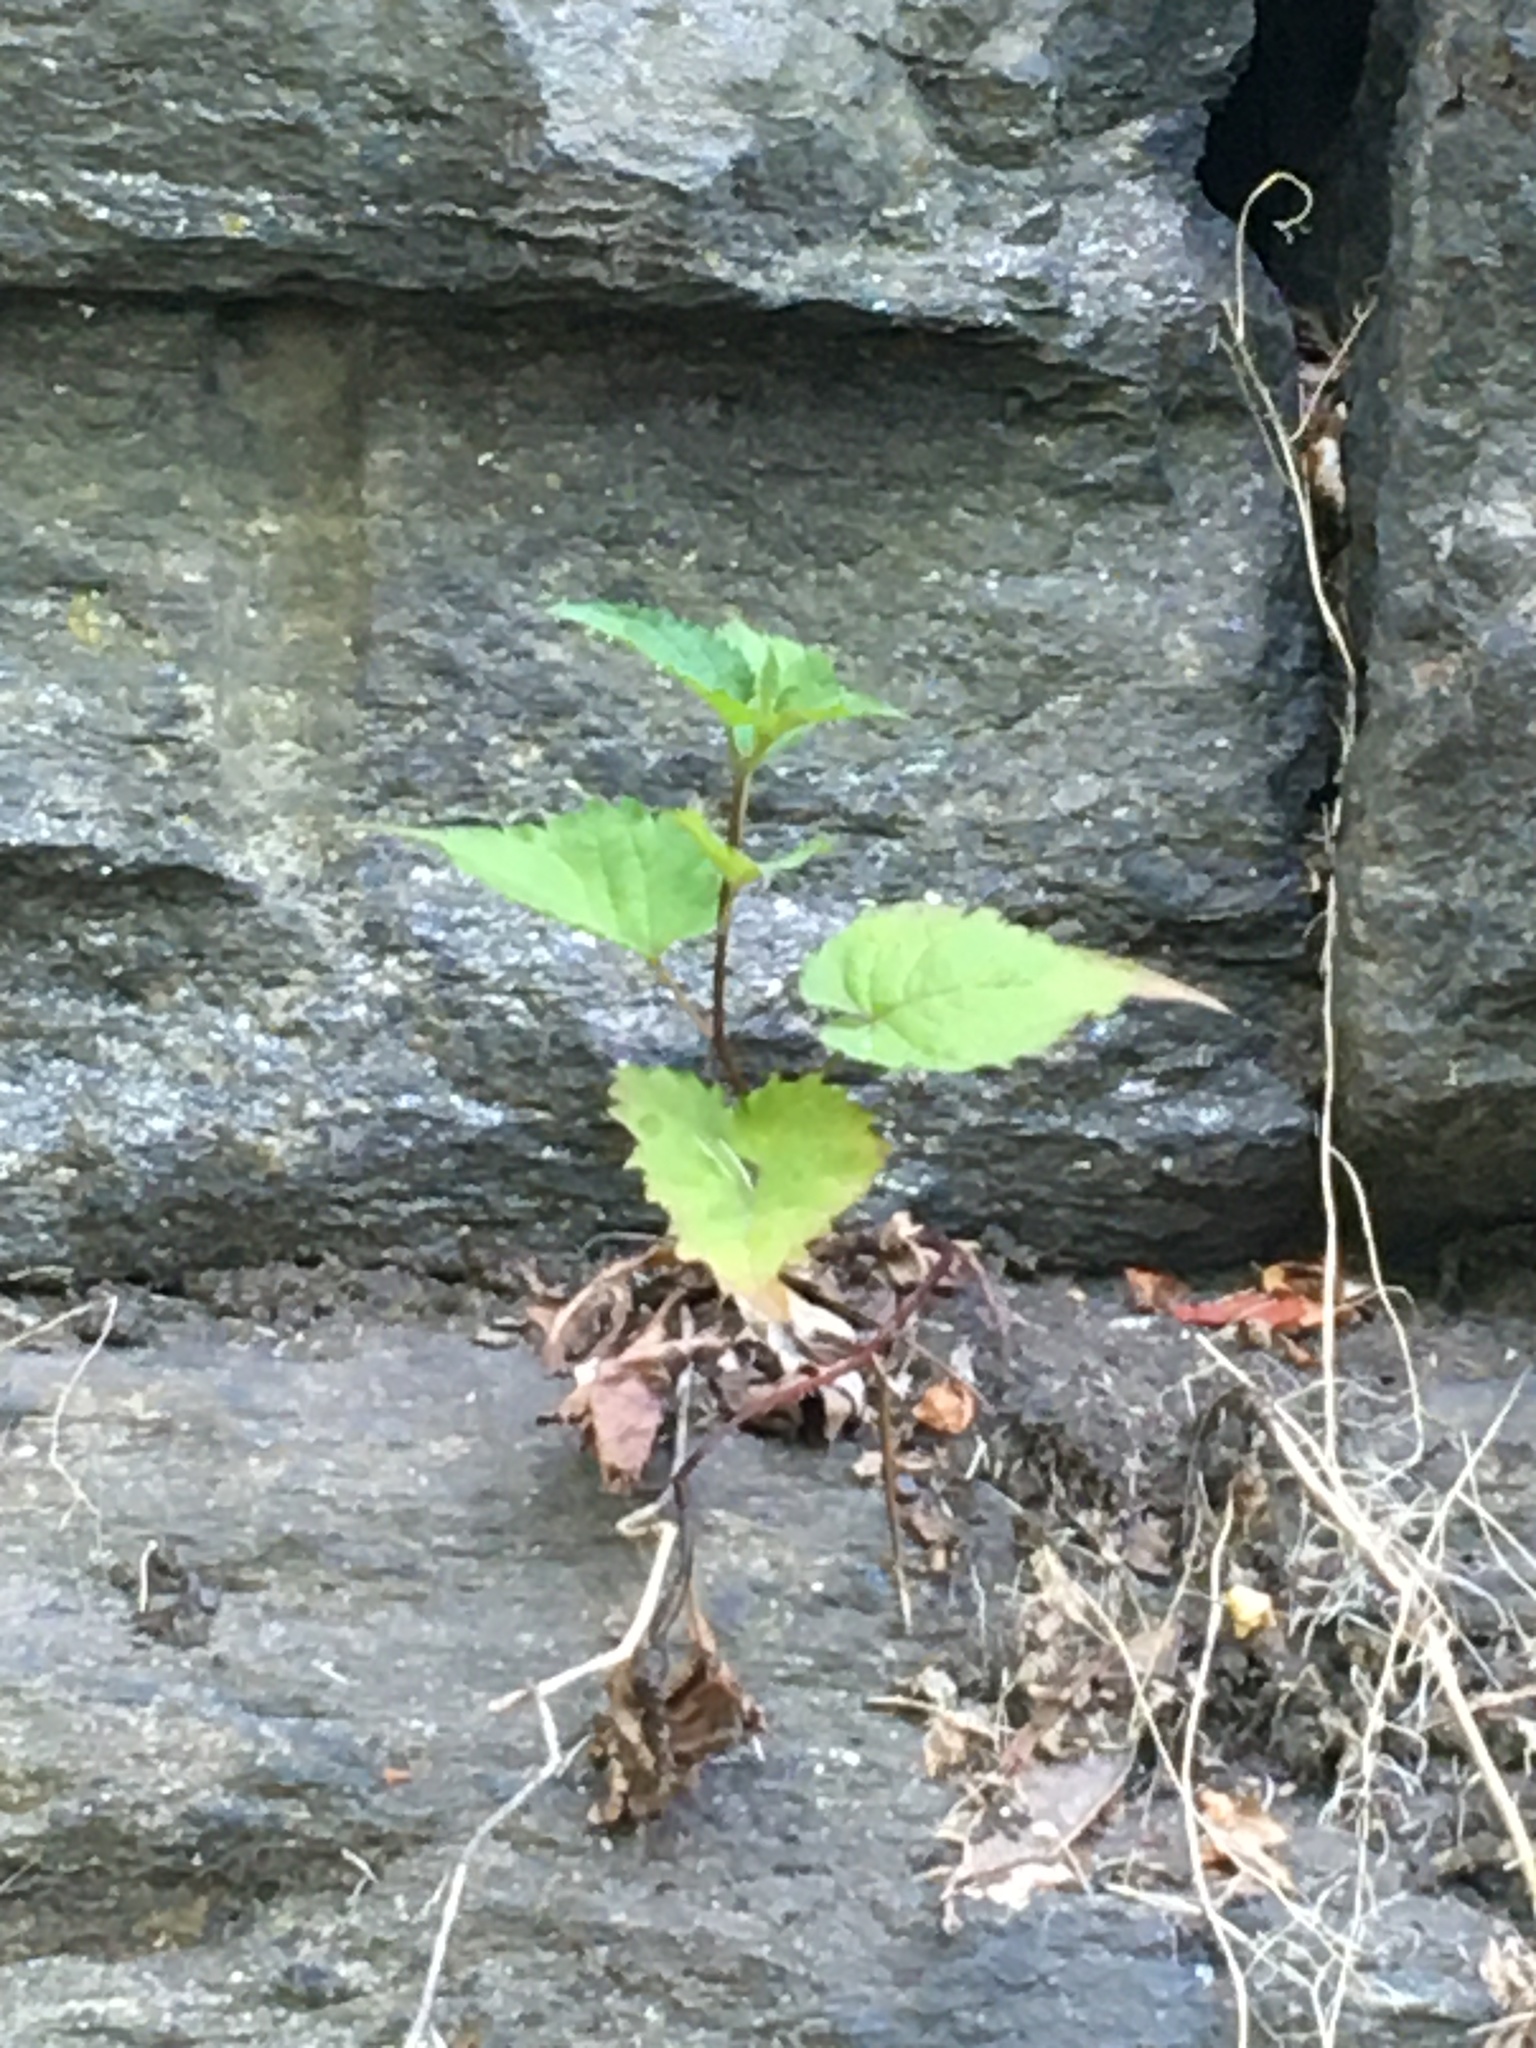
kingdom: Plantae
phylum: Tracheophyta
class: Magnoliopsida
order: Asterales
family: Asteraceae
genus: Eurybia
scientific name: Eurybia divaricata
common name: White wood aster
